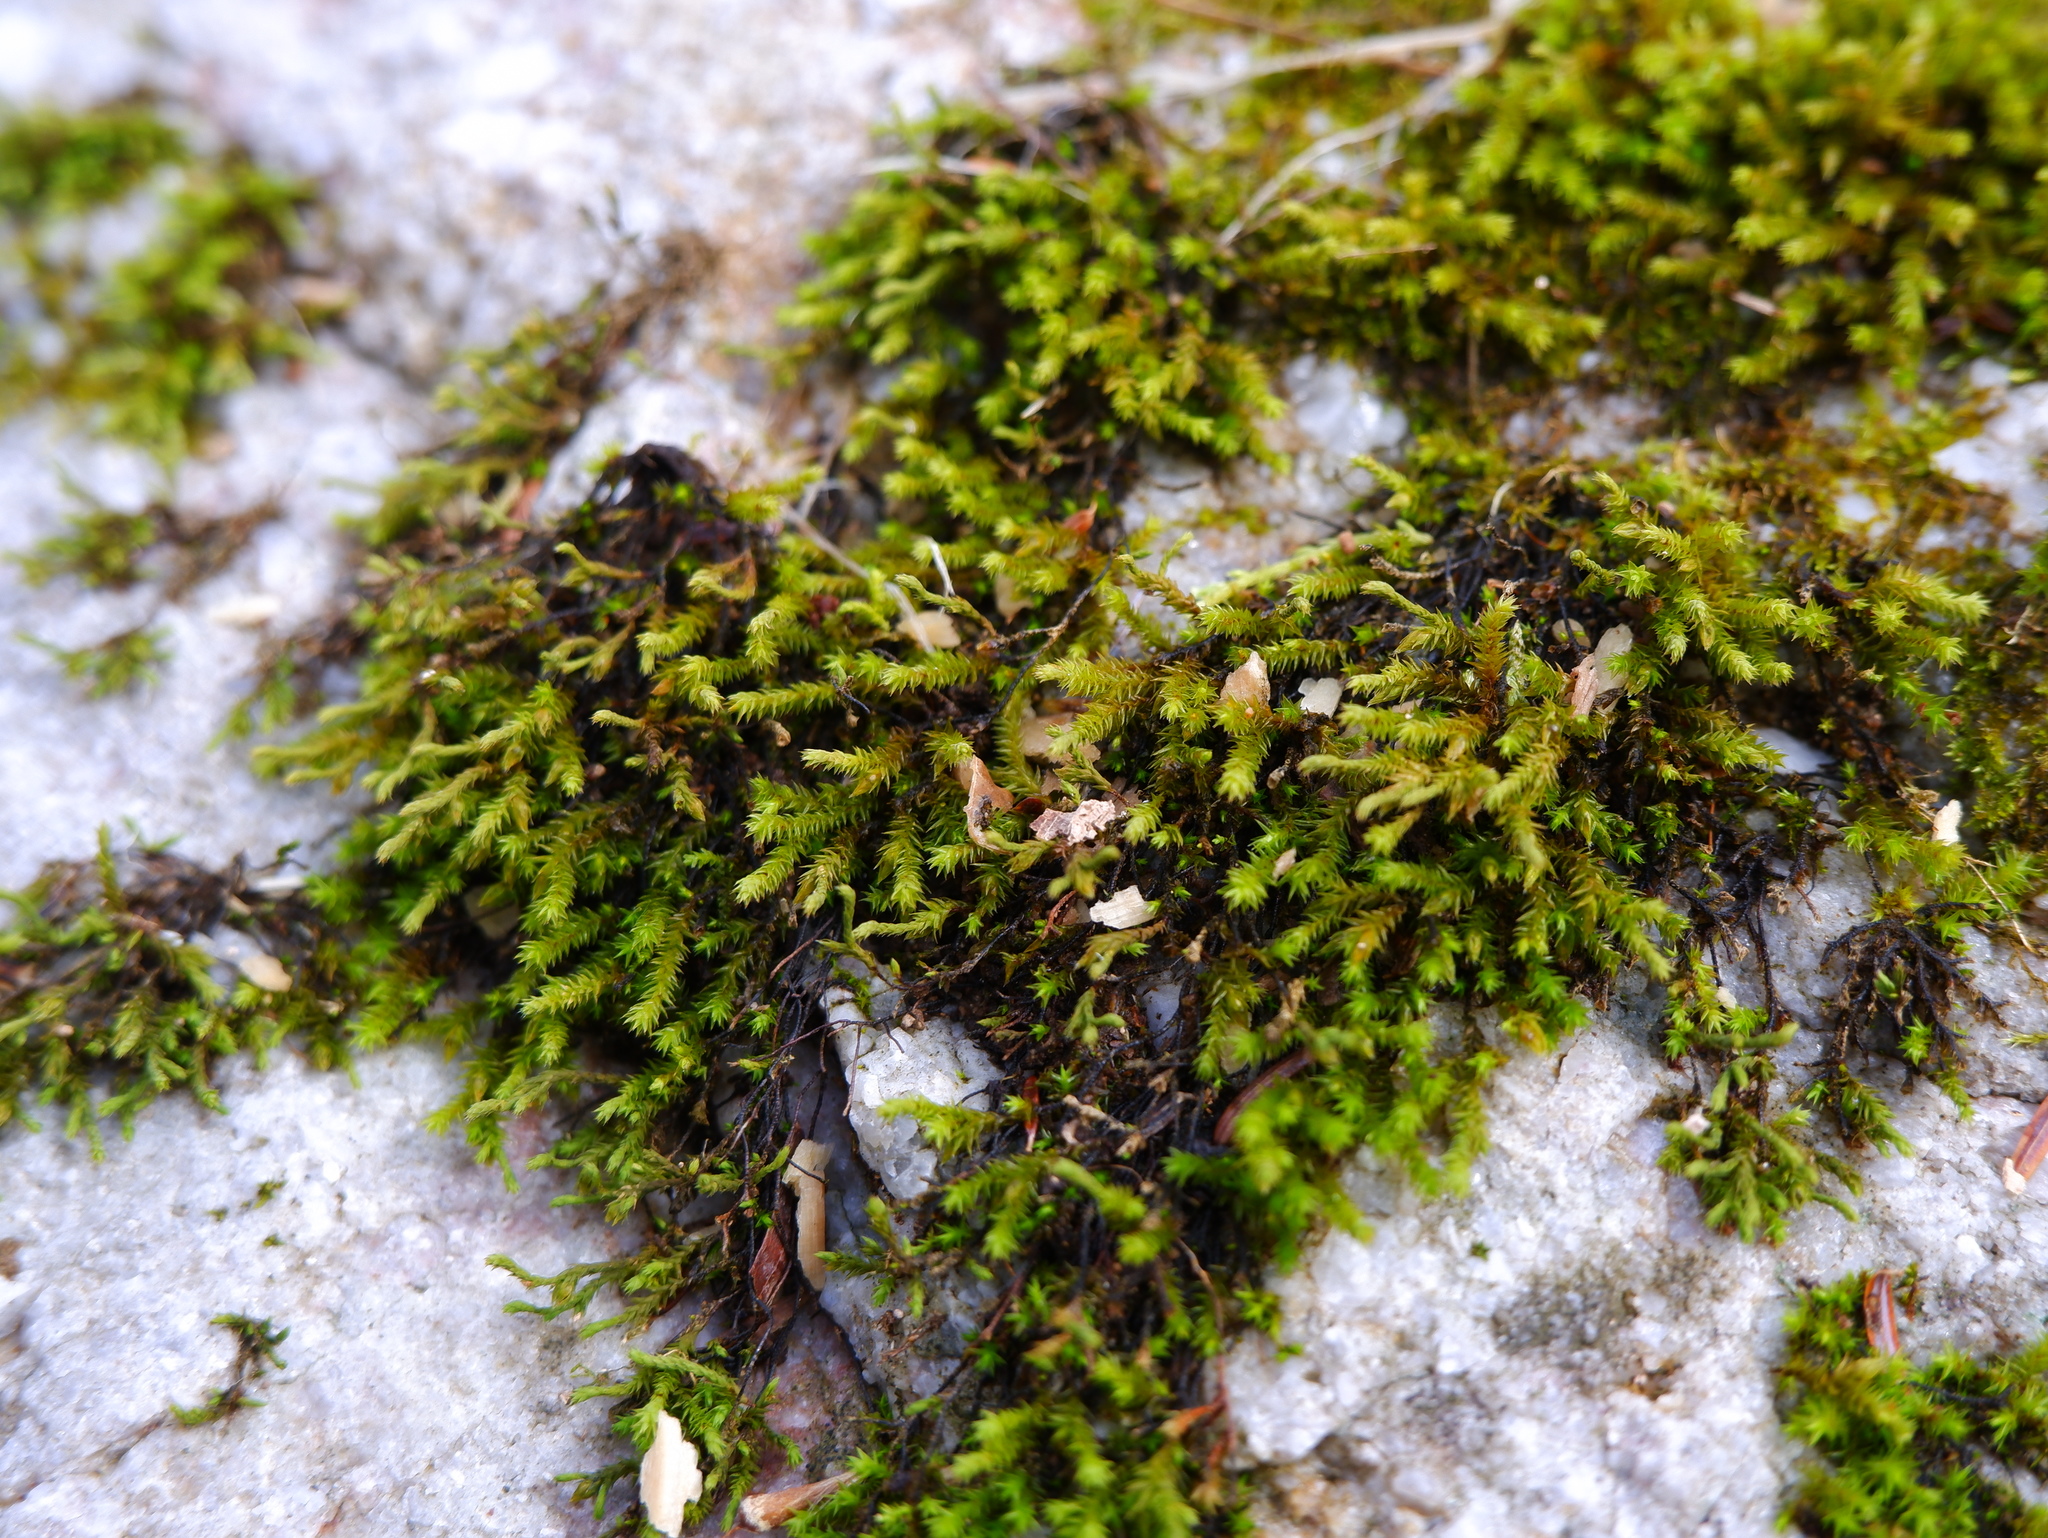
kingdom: Plantae
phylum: Bryophyta
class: Bryopsida
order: Hedwigiales
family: Hedwigiaceae
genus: Hedwigia
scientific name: Hedwigia ciliata
